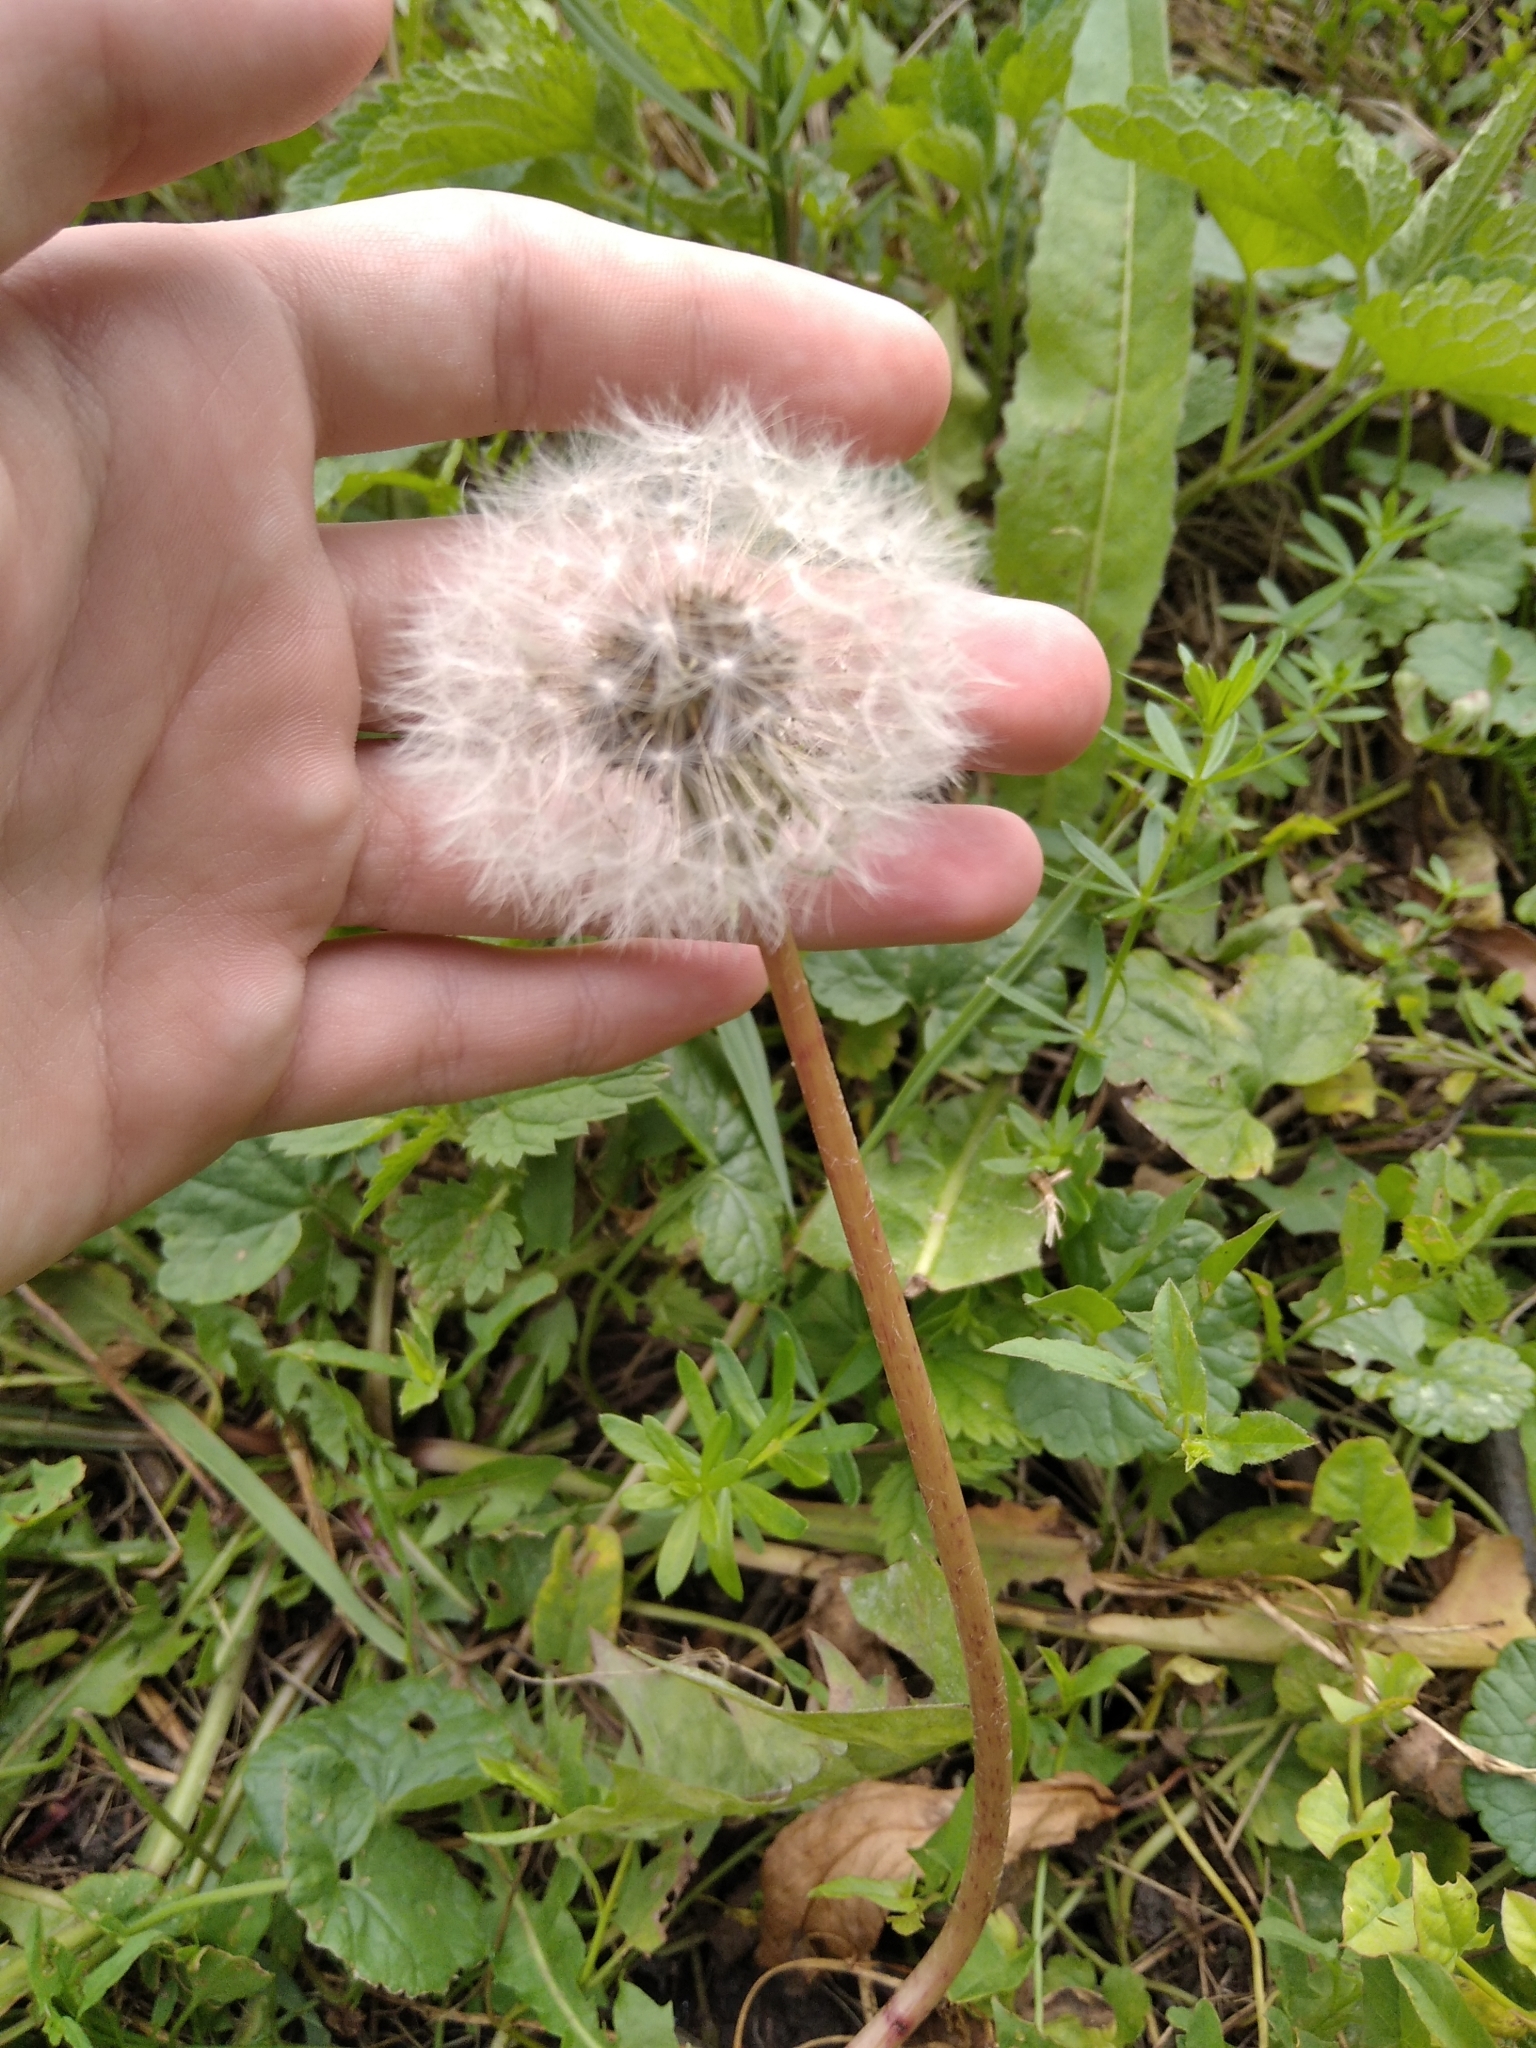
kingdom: Plantae
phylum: Tracheophyta
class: Magnoliopsida
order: Asterales
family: Asteraceae
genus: Taraxacum
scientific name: Taraxacum officinale
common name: Common dandelion
